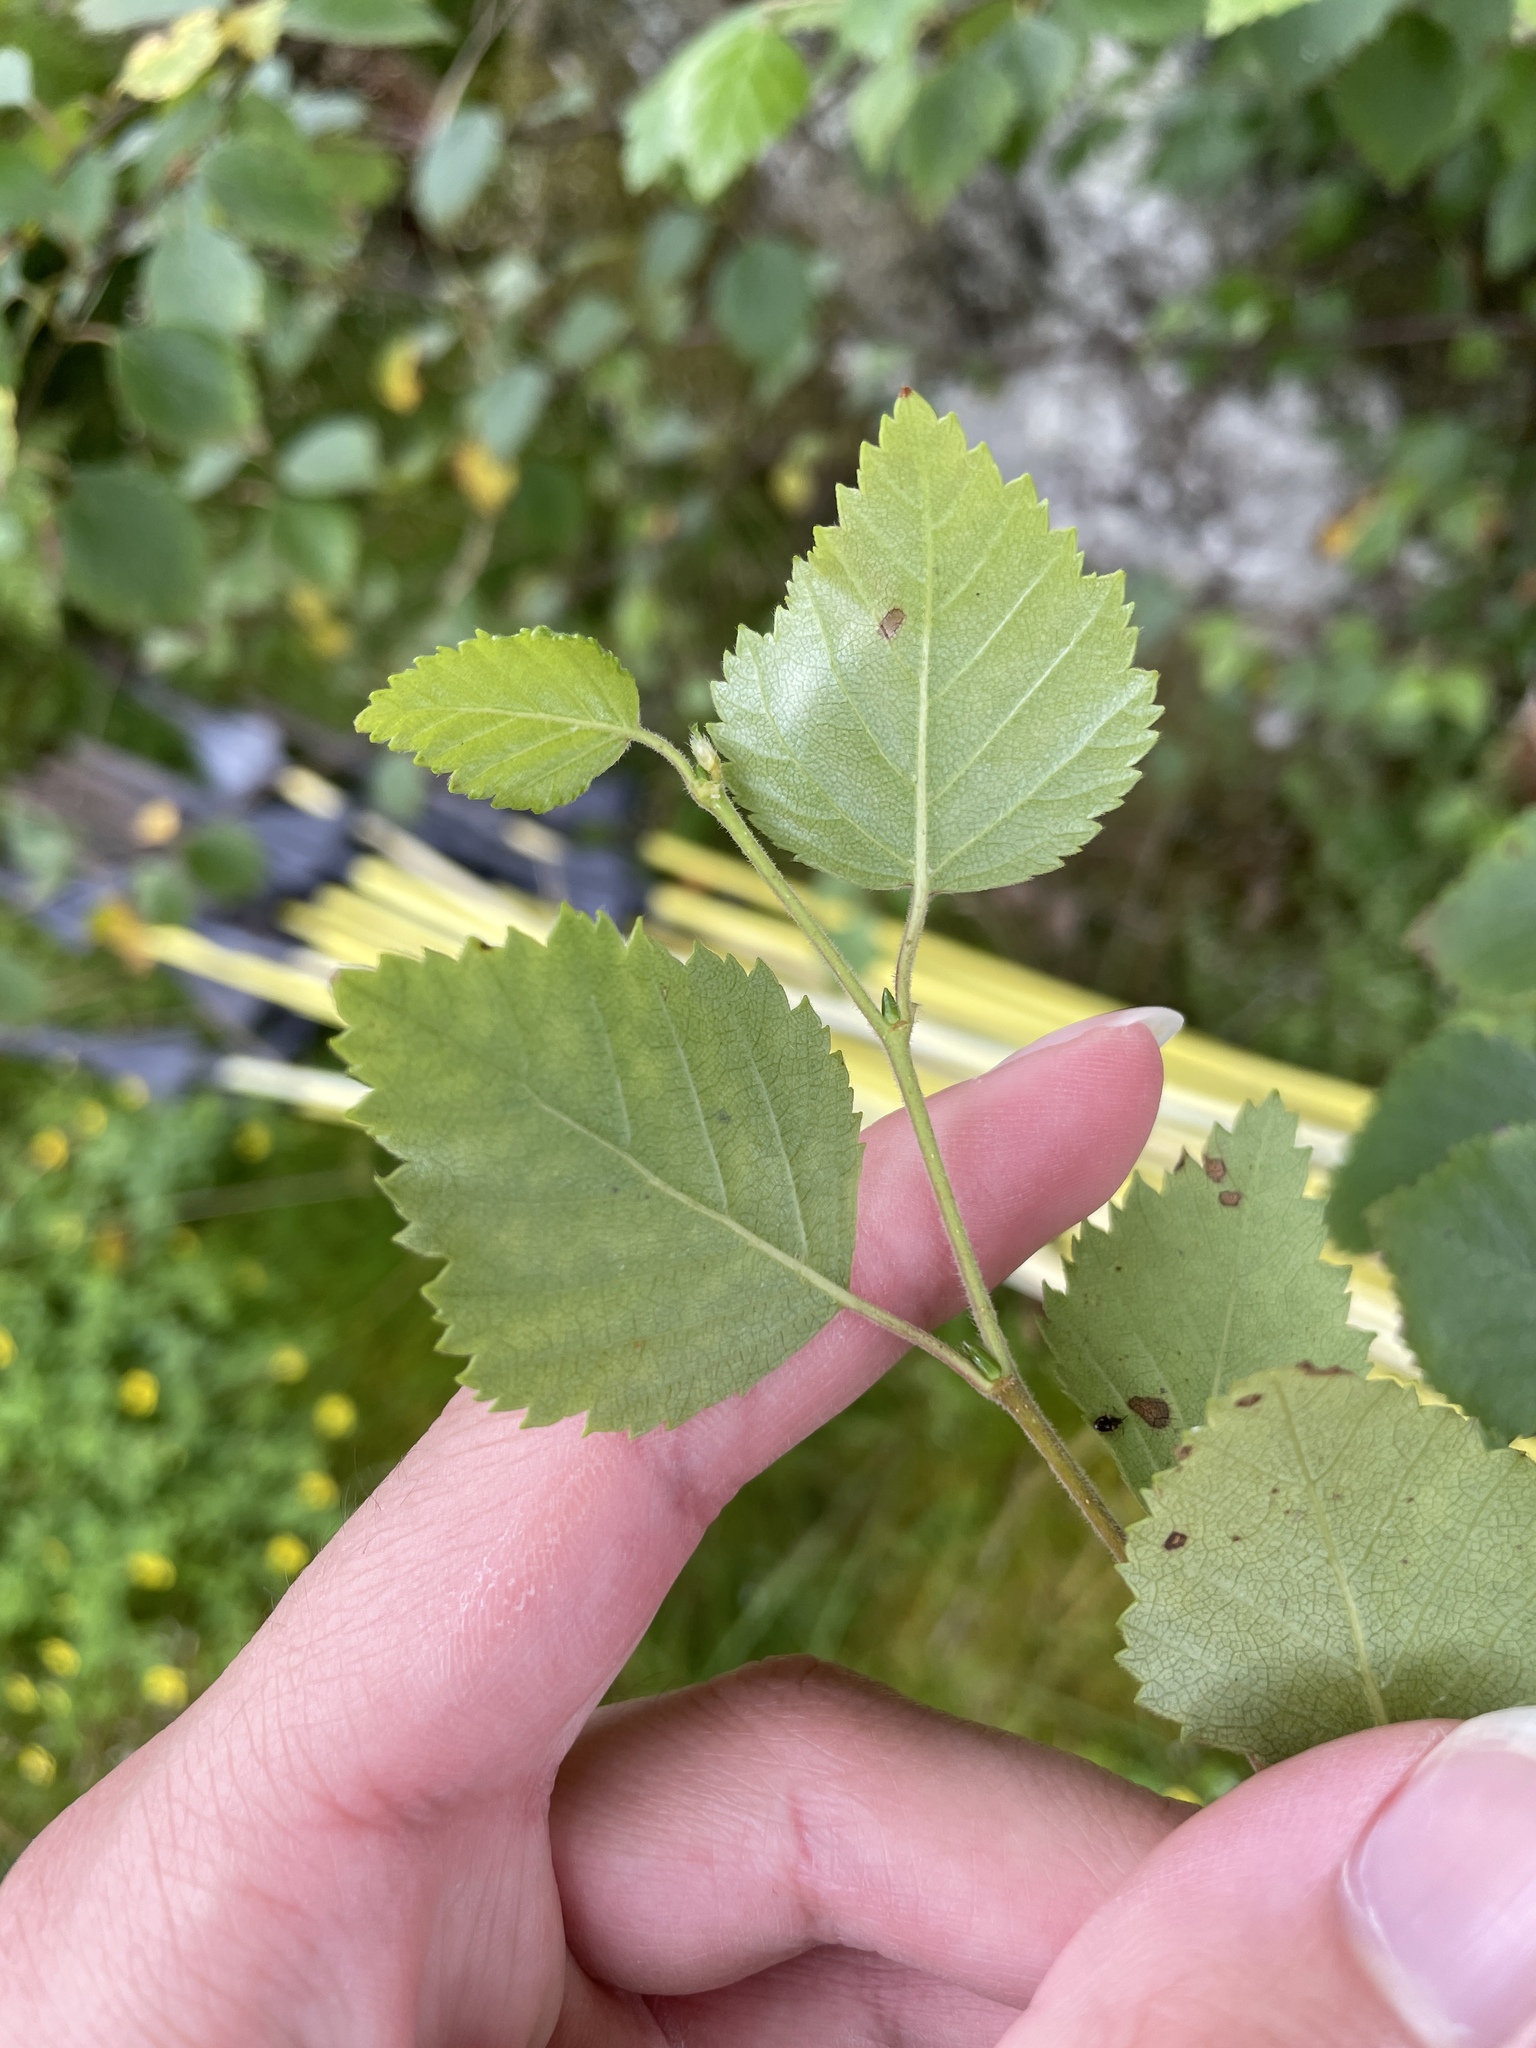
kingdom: Plantae
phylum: Tracheophyta
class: Magnoliopsida
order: Fagales
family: Betulaceae
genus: Betula
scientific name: Betula pubescens
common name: Downy birch
